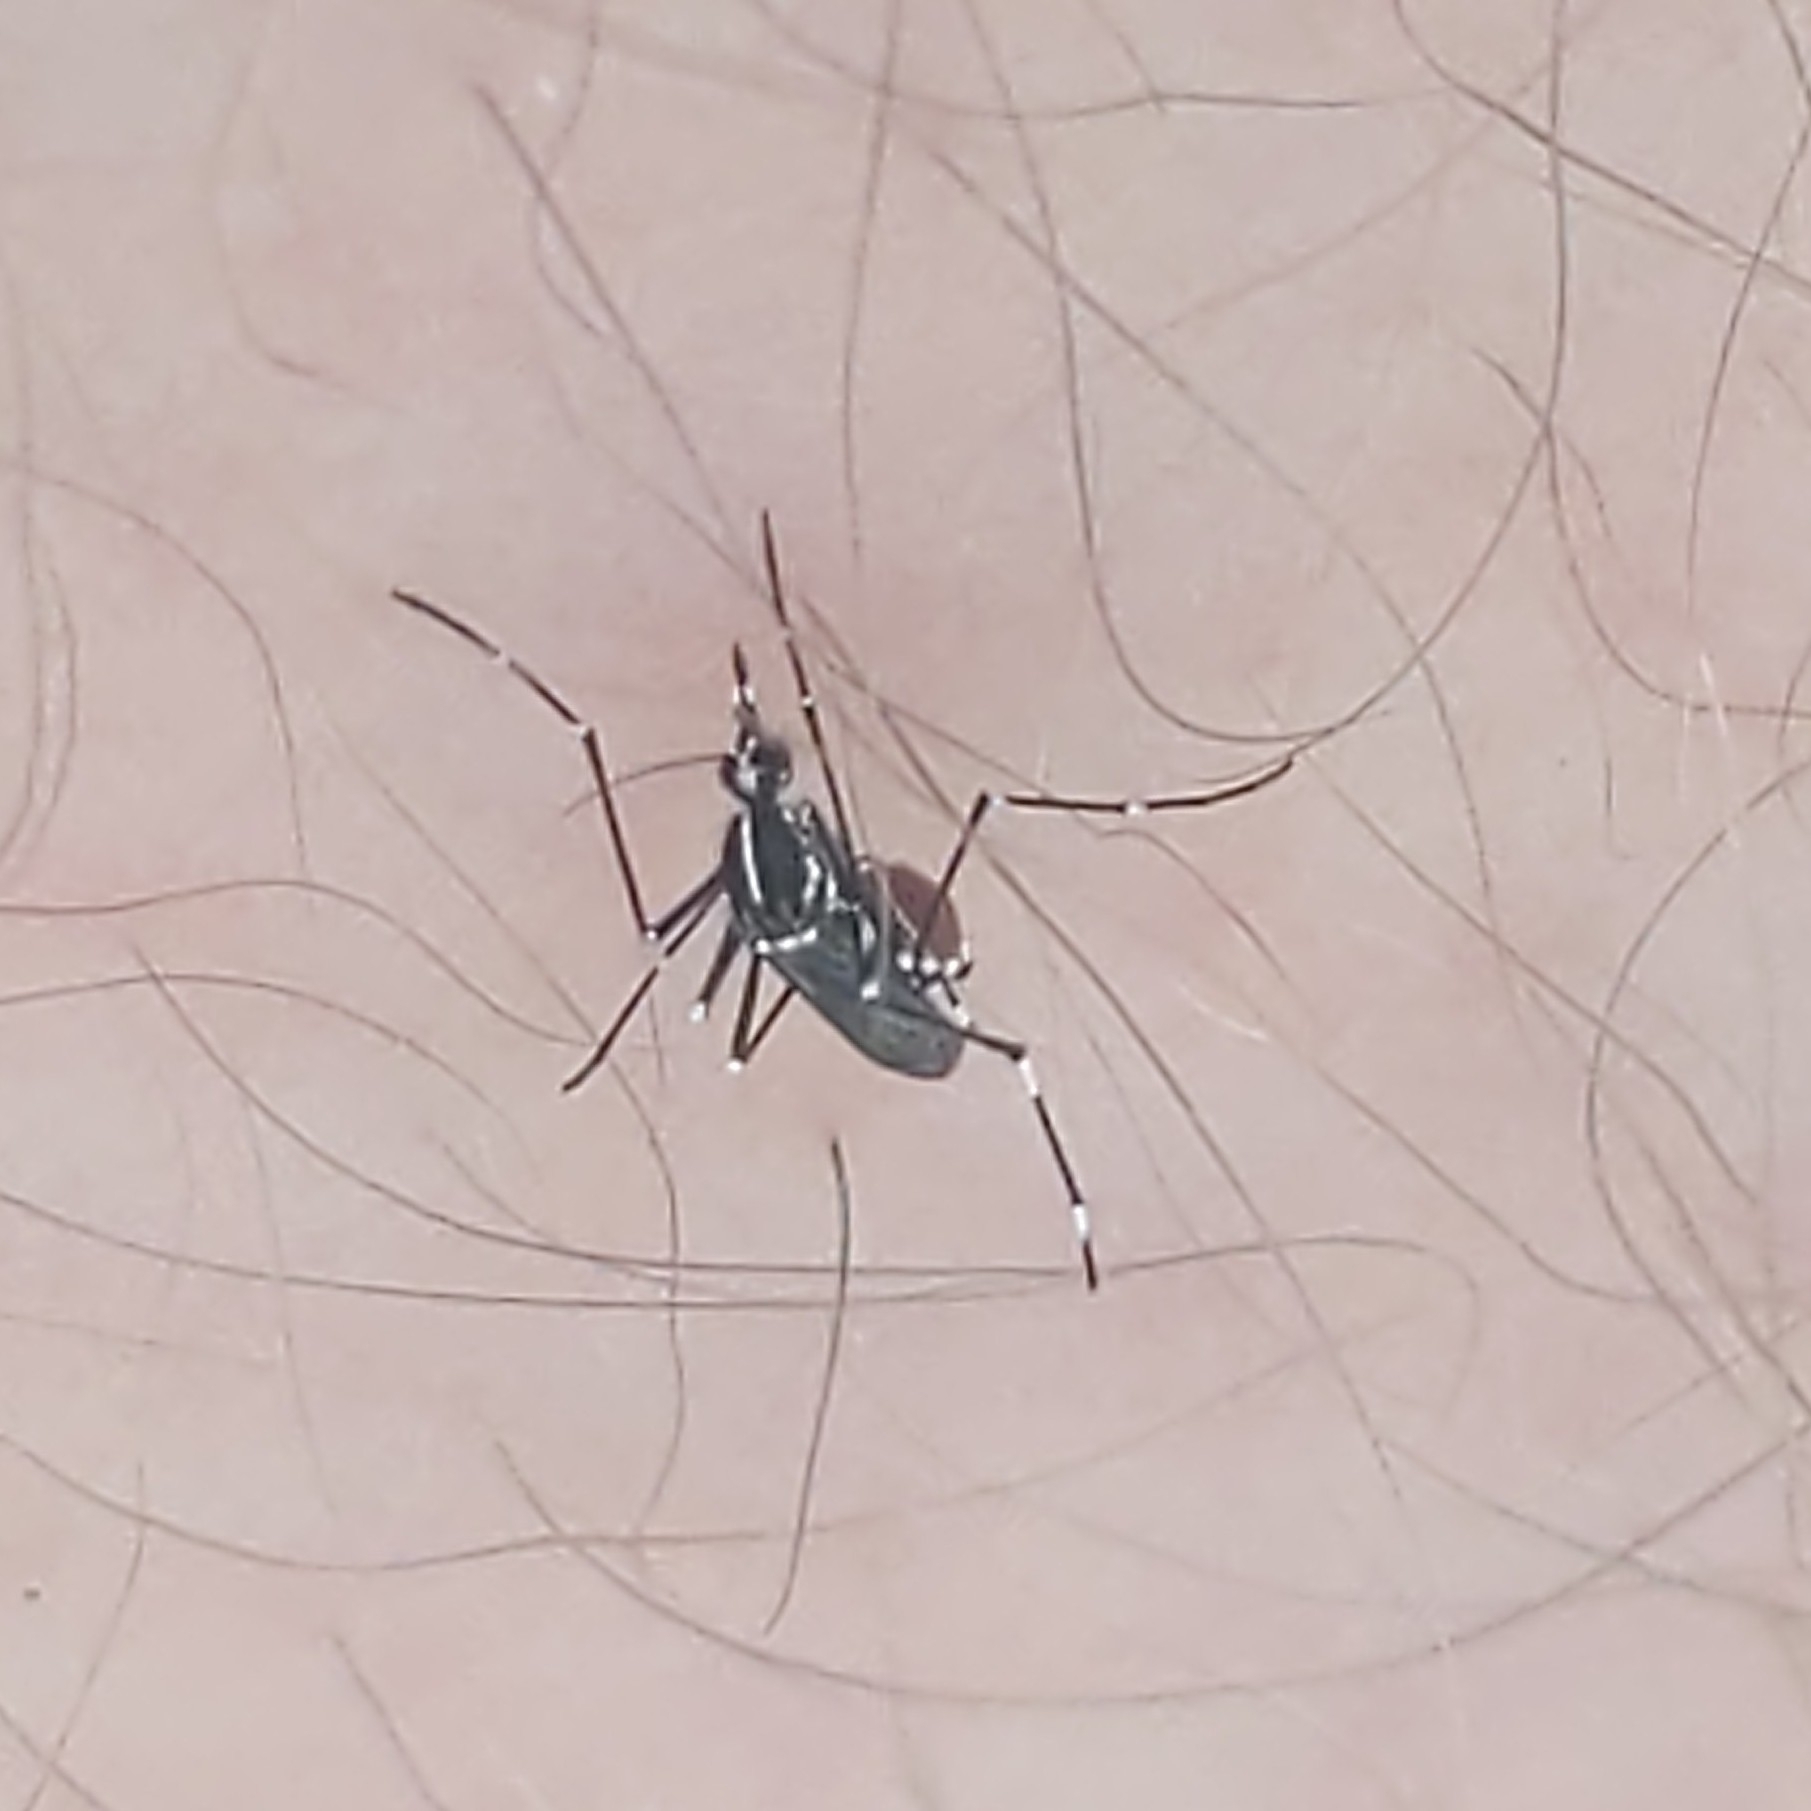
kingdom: Animalia
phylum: Arthropoda
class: Insecta
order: Diptera
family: Culicidae
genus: Aedes
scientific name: Aedes albopictus
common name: Tiger mosquito
